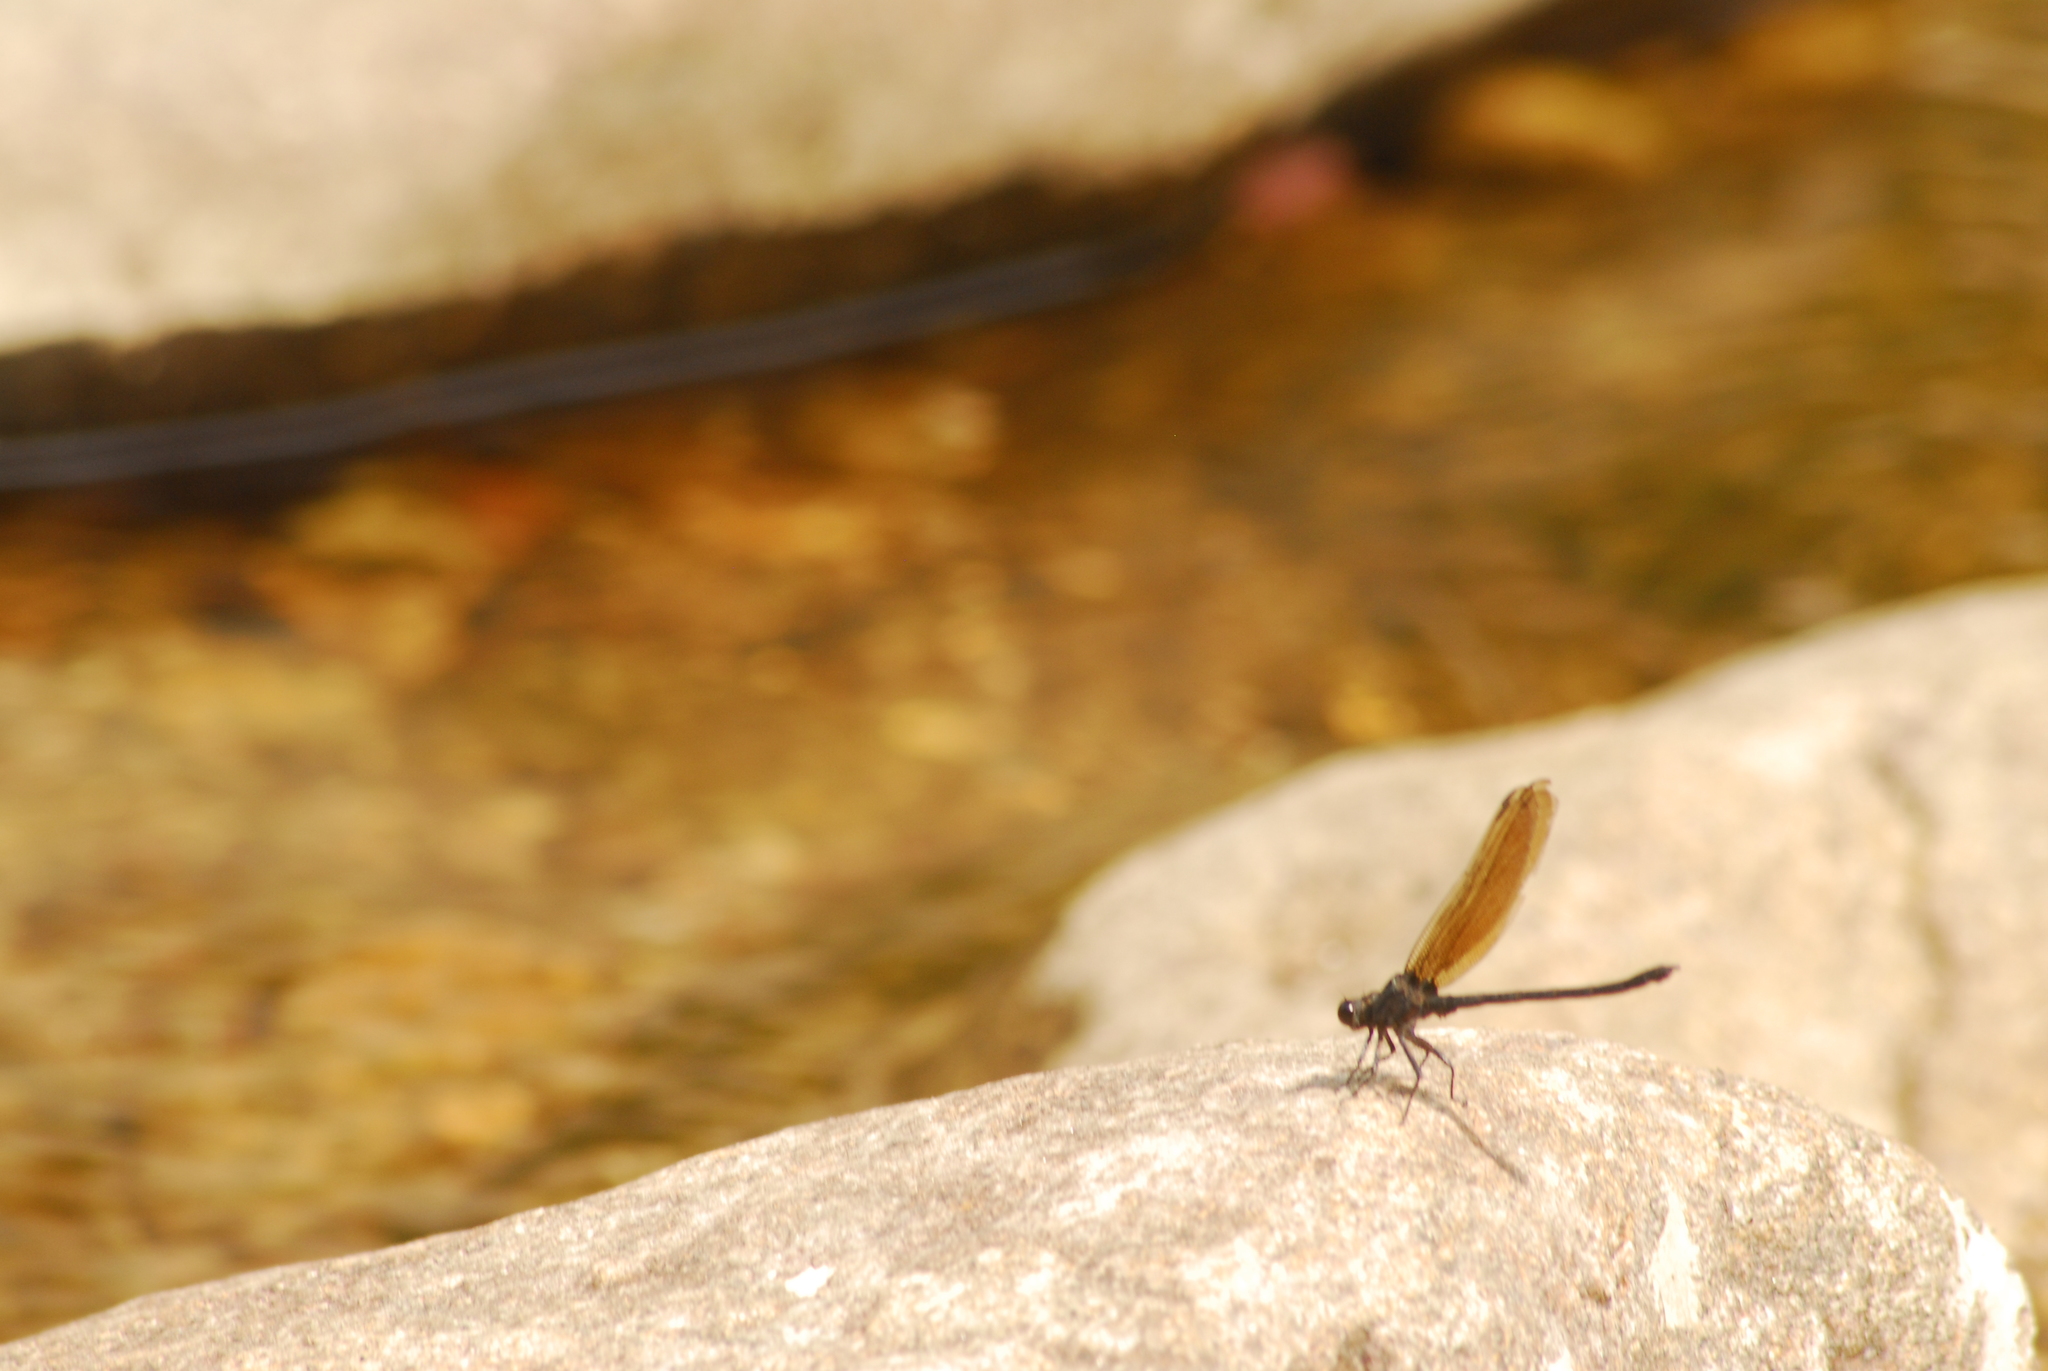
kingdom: Animalia
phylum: Arthropoda
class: Insecta
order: Odonata
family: Euphaeidae
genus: Dysphaea
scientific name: Dysphaea ethela
